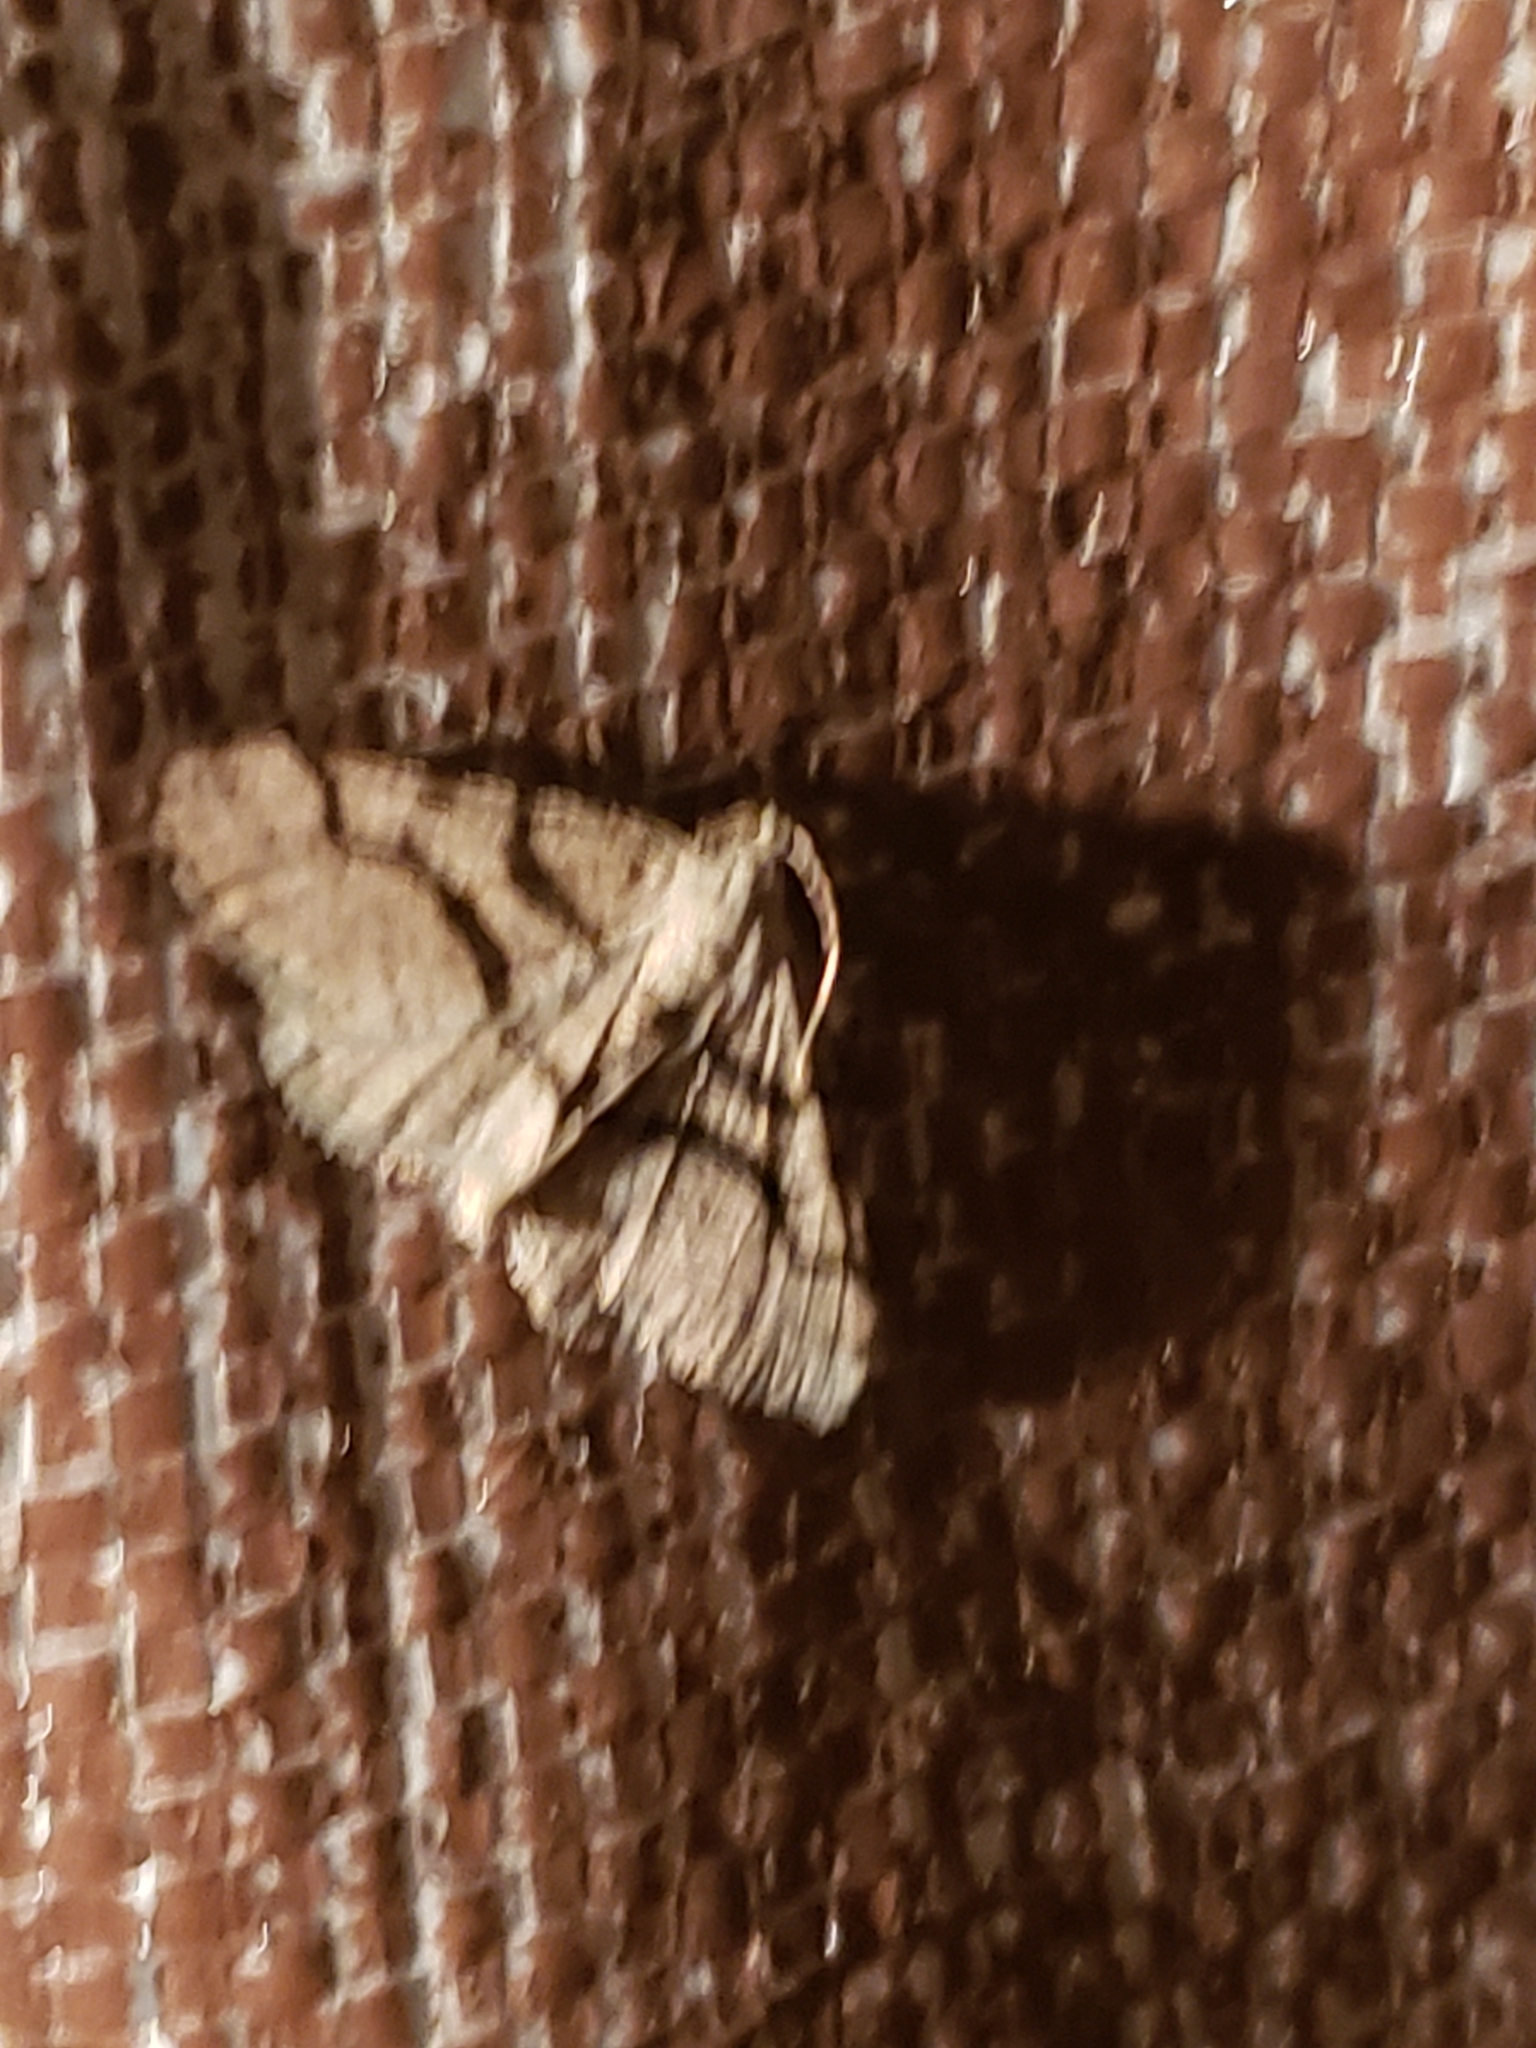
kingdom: Animalia
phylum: Arthropoda
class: Insecta
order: Lepidoptera
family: Geometridae
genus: Digrammia
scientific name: Digrammia continuata
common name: Curve-lined angle
